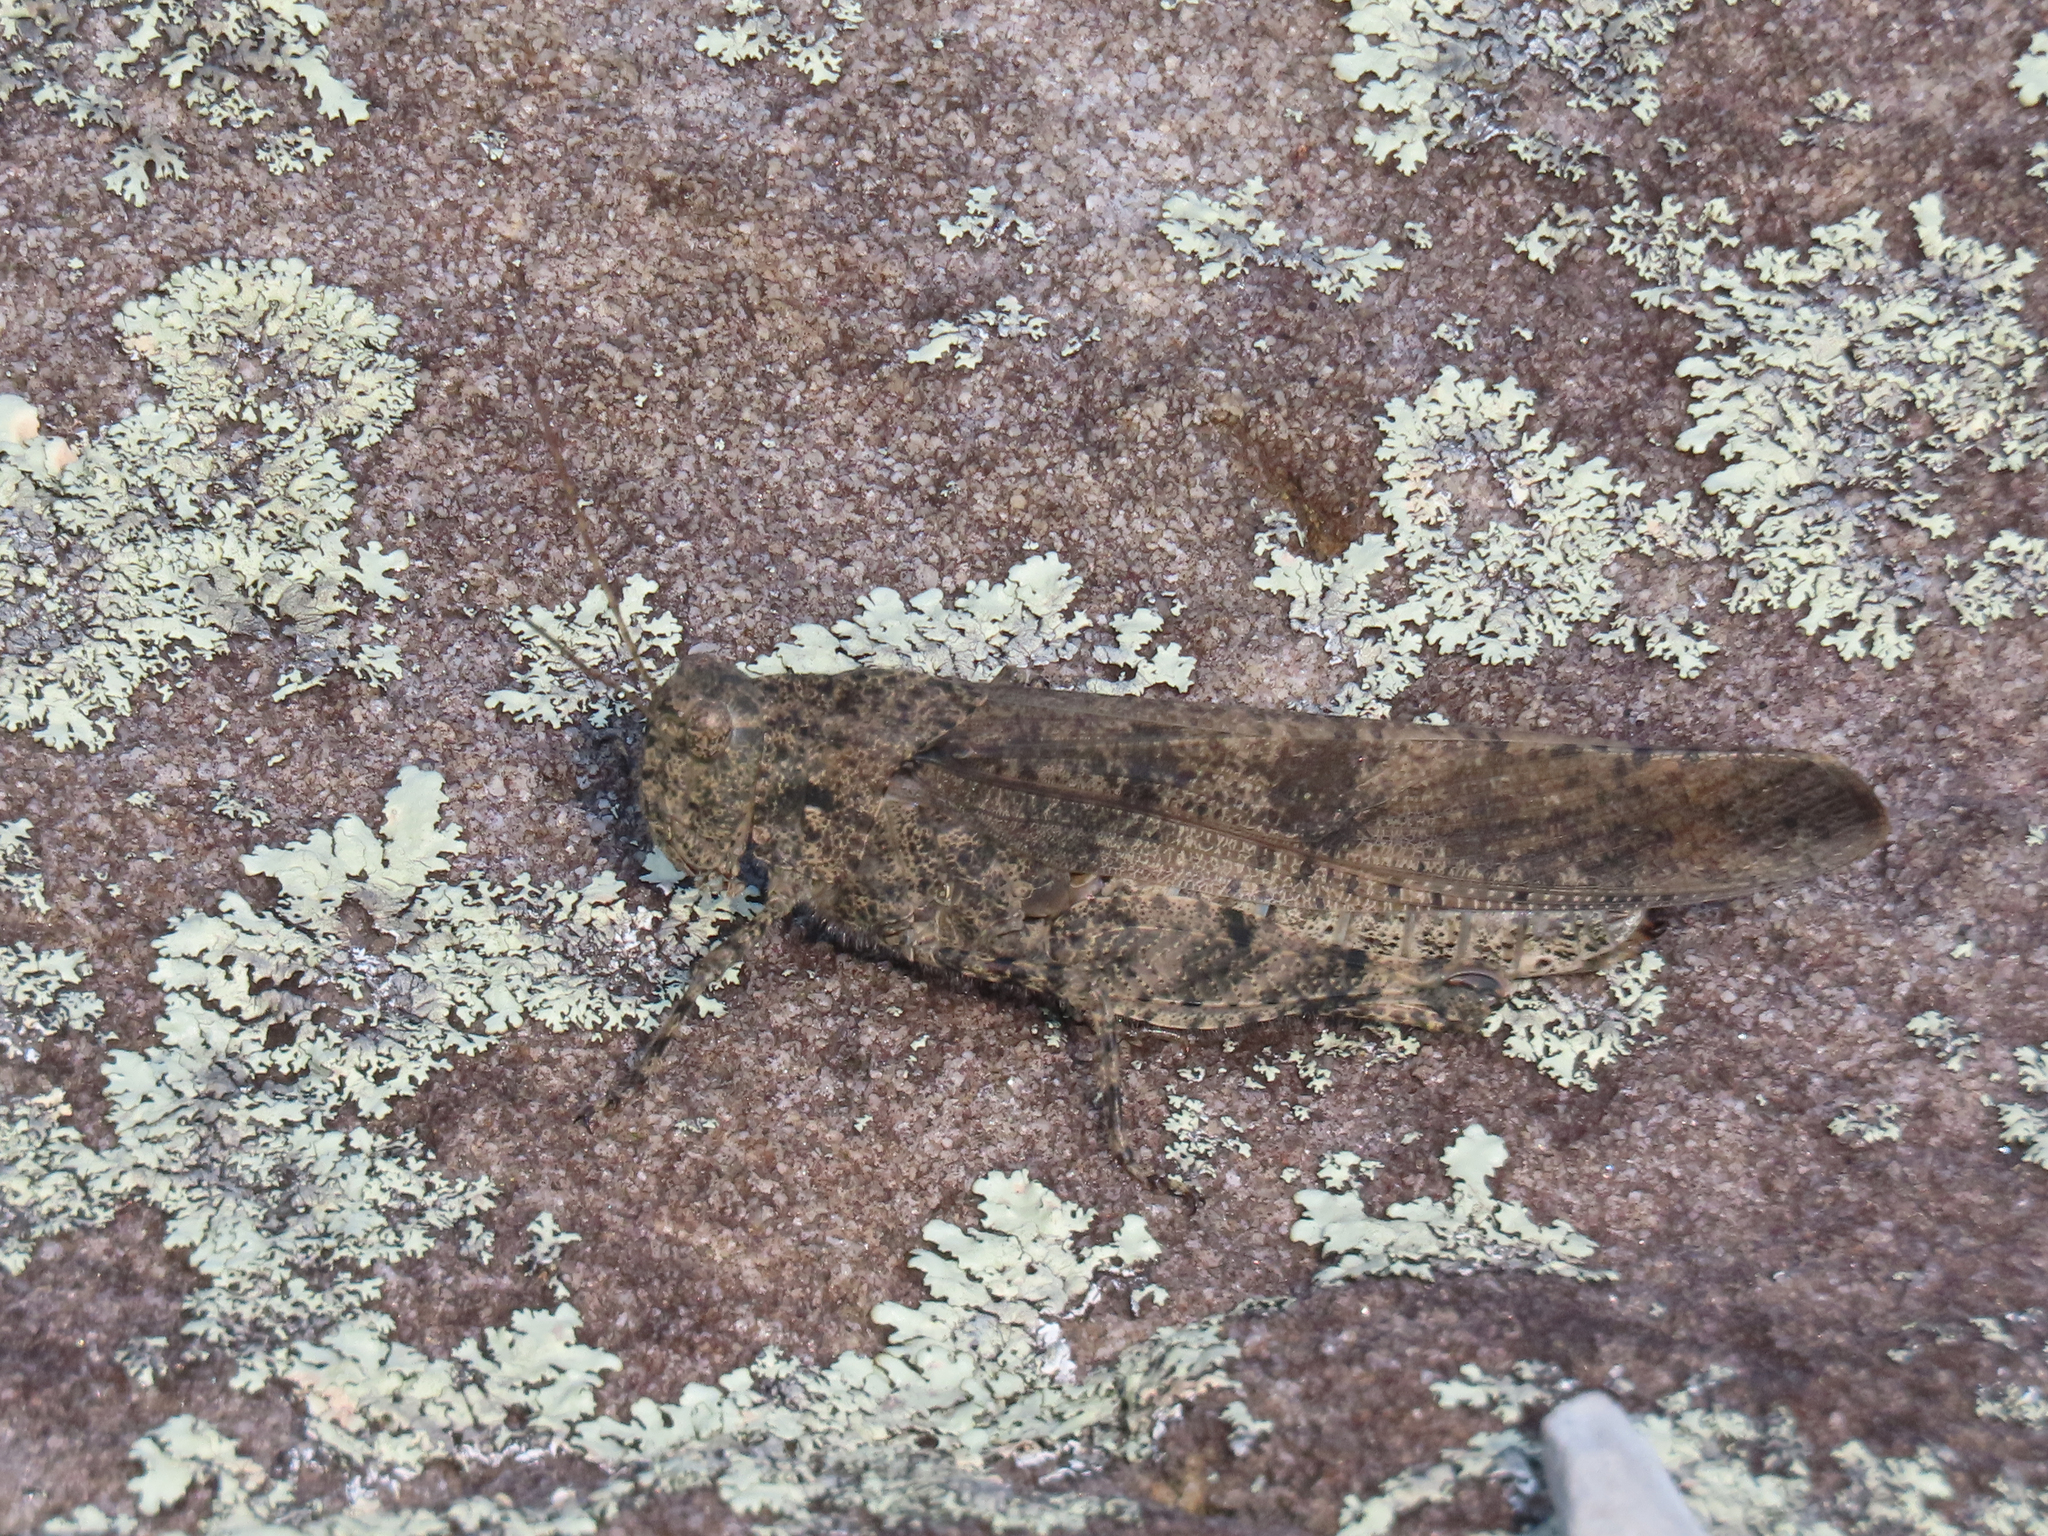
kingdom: Animalia
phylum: Arthropoda
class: Insecta
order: Orthoptera
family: Acrididae
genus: Dissosteira
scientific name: Dissosteira carolina
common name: Carolina grasshopper
